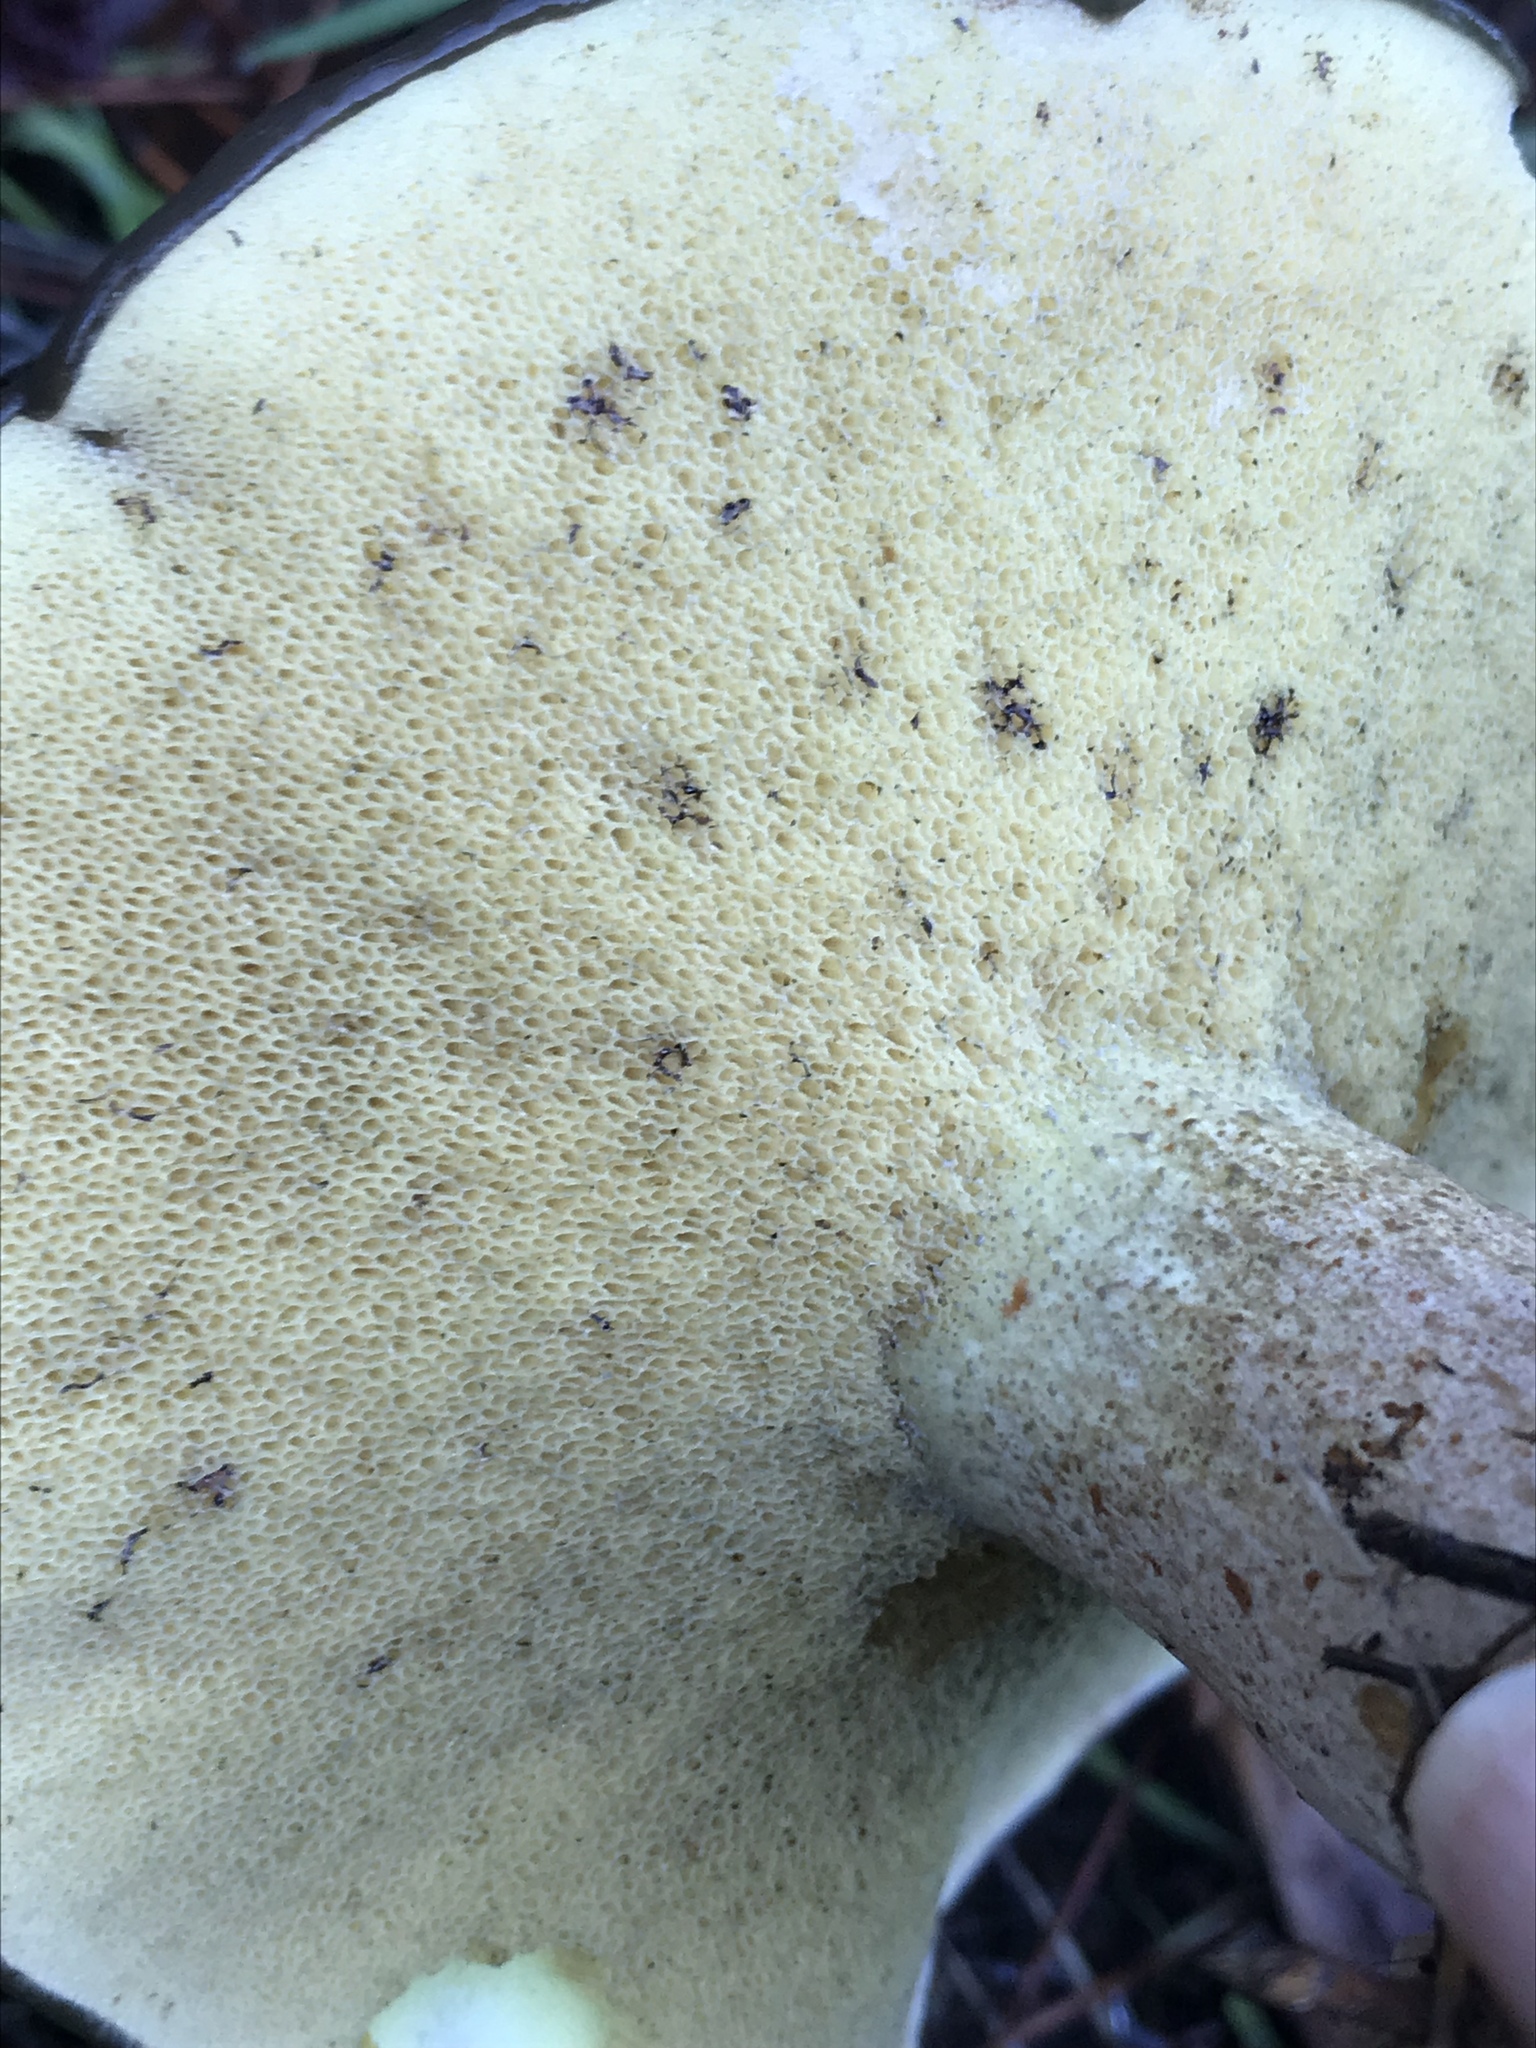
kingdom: Fungi
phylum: Basidiomycota
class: Agaricomycetes
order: Boletales
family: Suillaceae
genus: Suillus
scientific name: Suillus pungens
